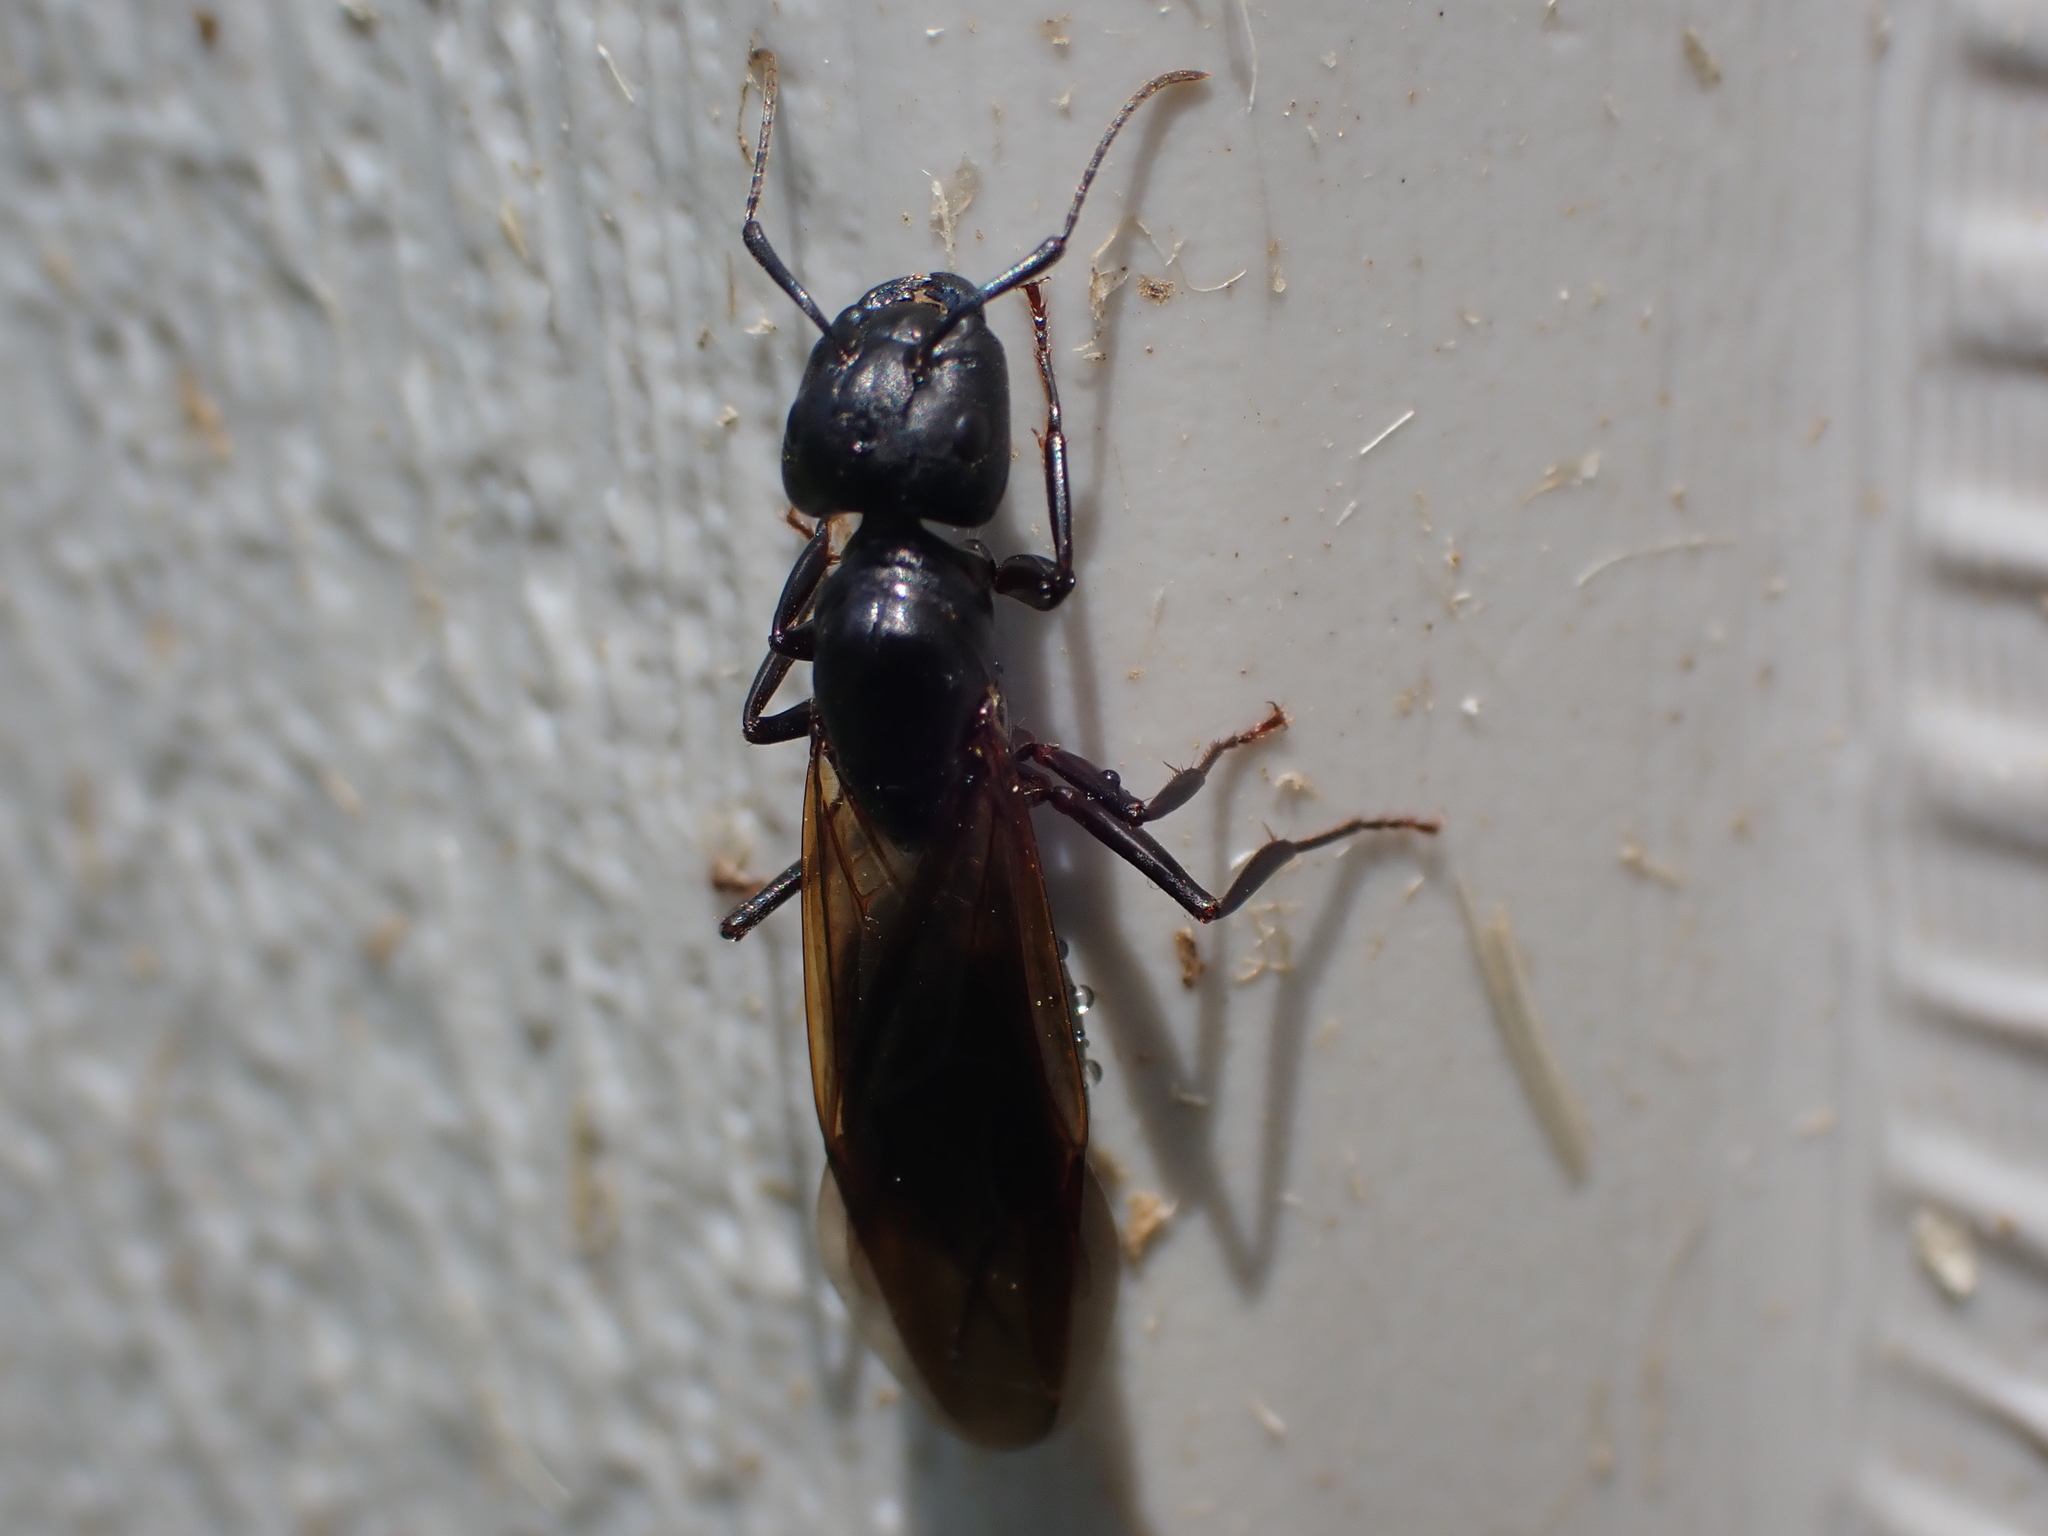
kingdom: Animalia
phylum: Arthropoda
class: Insecta
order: Hymenoptera
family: Formicidae
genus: Camponotus
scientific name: Camponotus pennsylvanicus
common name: Black carpenter ant
